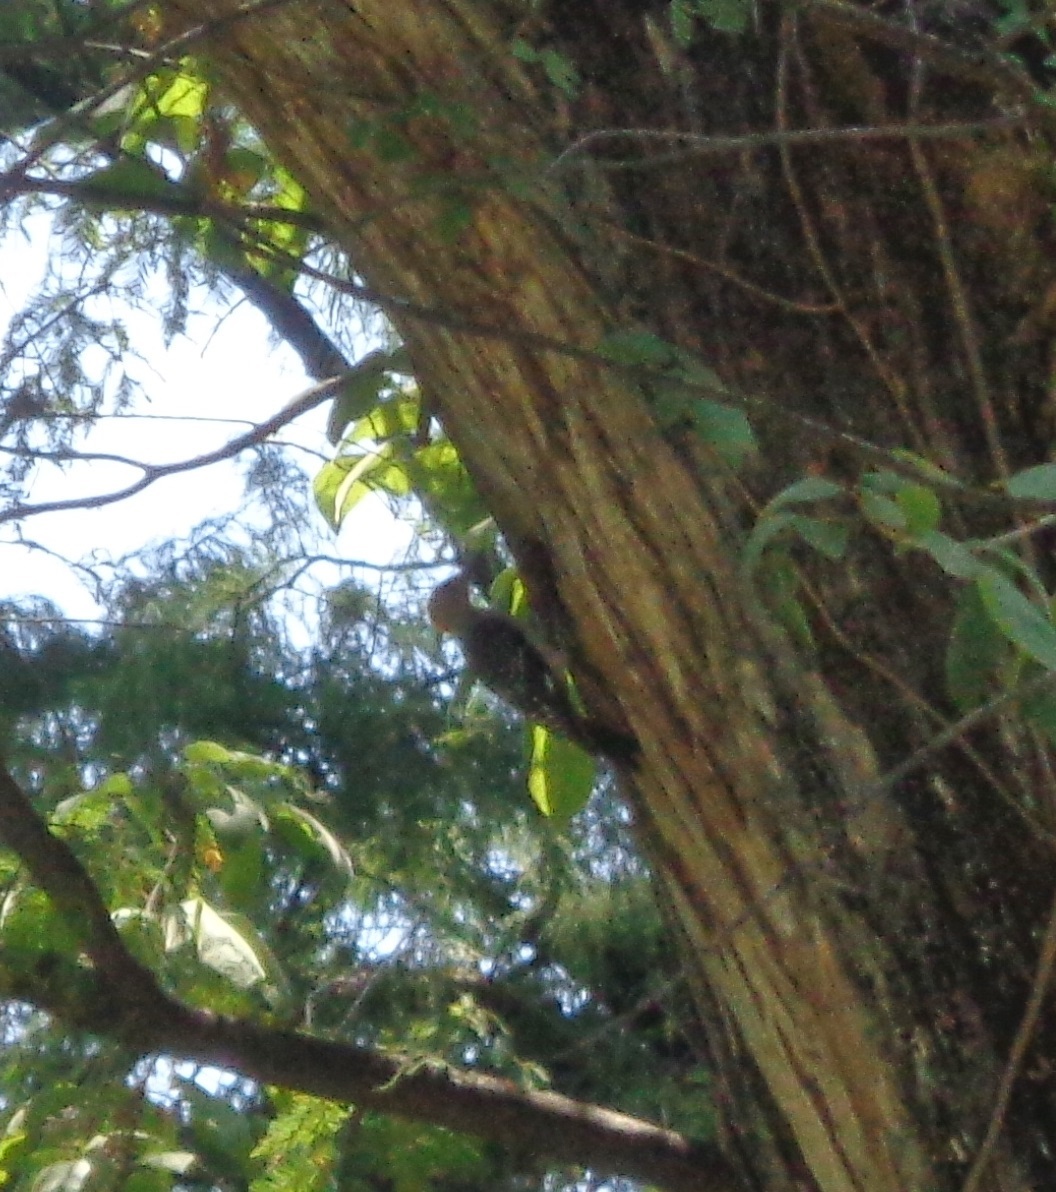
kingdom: Animalia
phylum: Chordata
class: Aves
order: Piciformes
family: Picidae
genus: Melanerpes
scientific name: Melanerpes aurifrons
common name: Golden-fronted woodpecker
